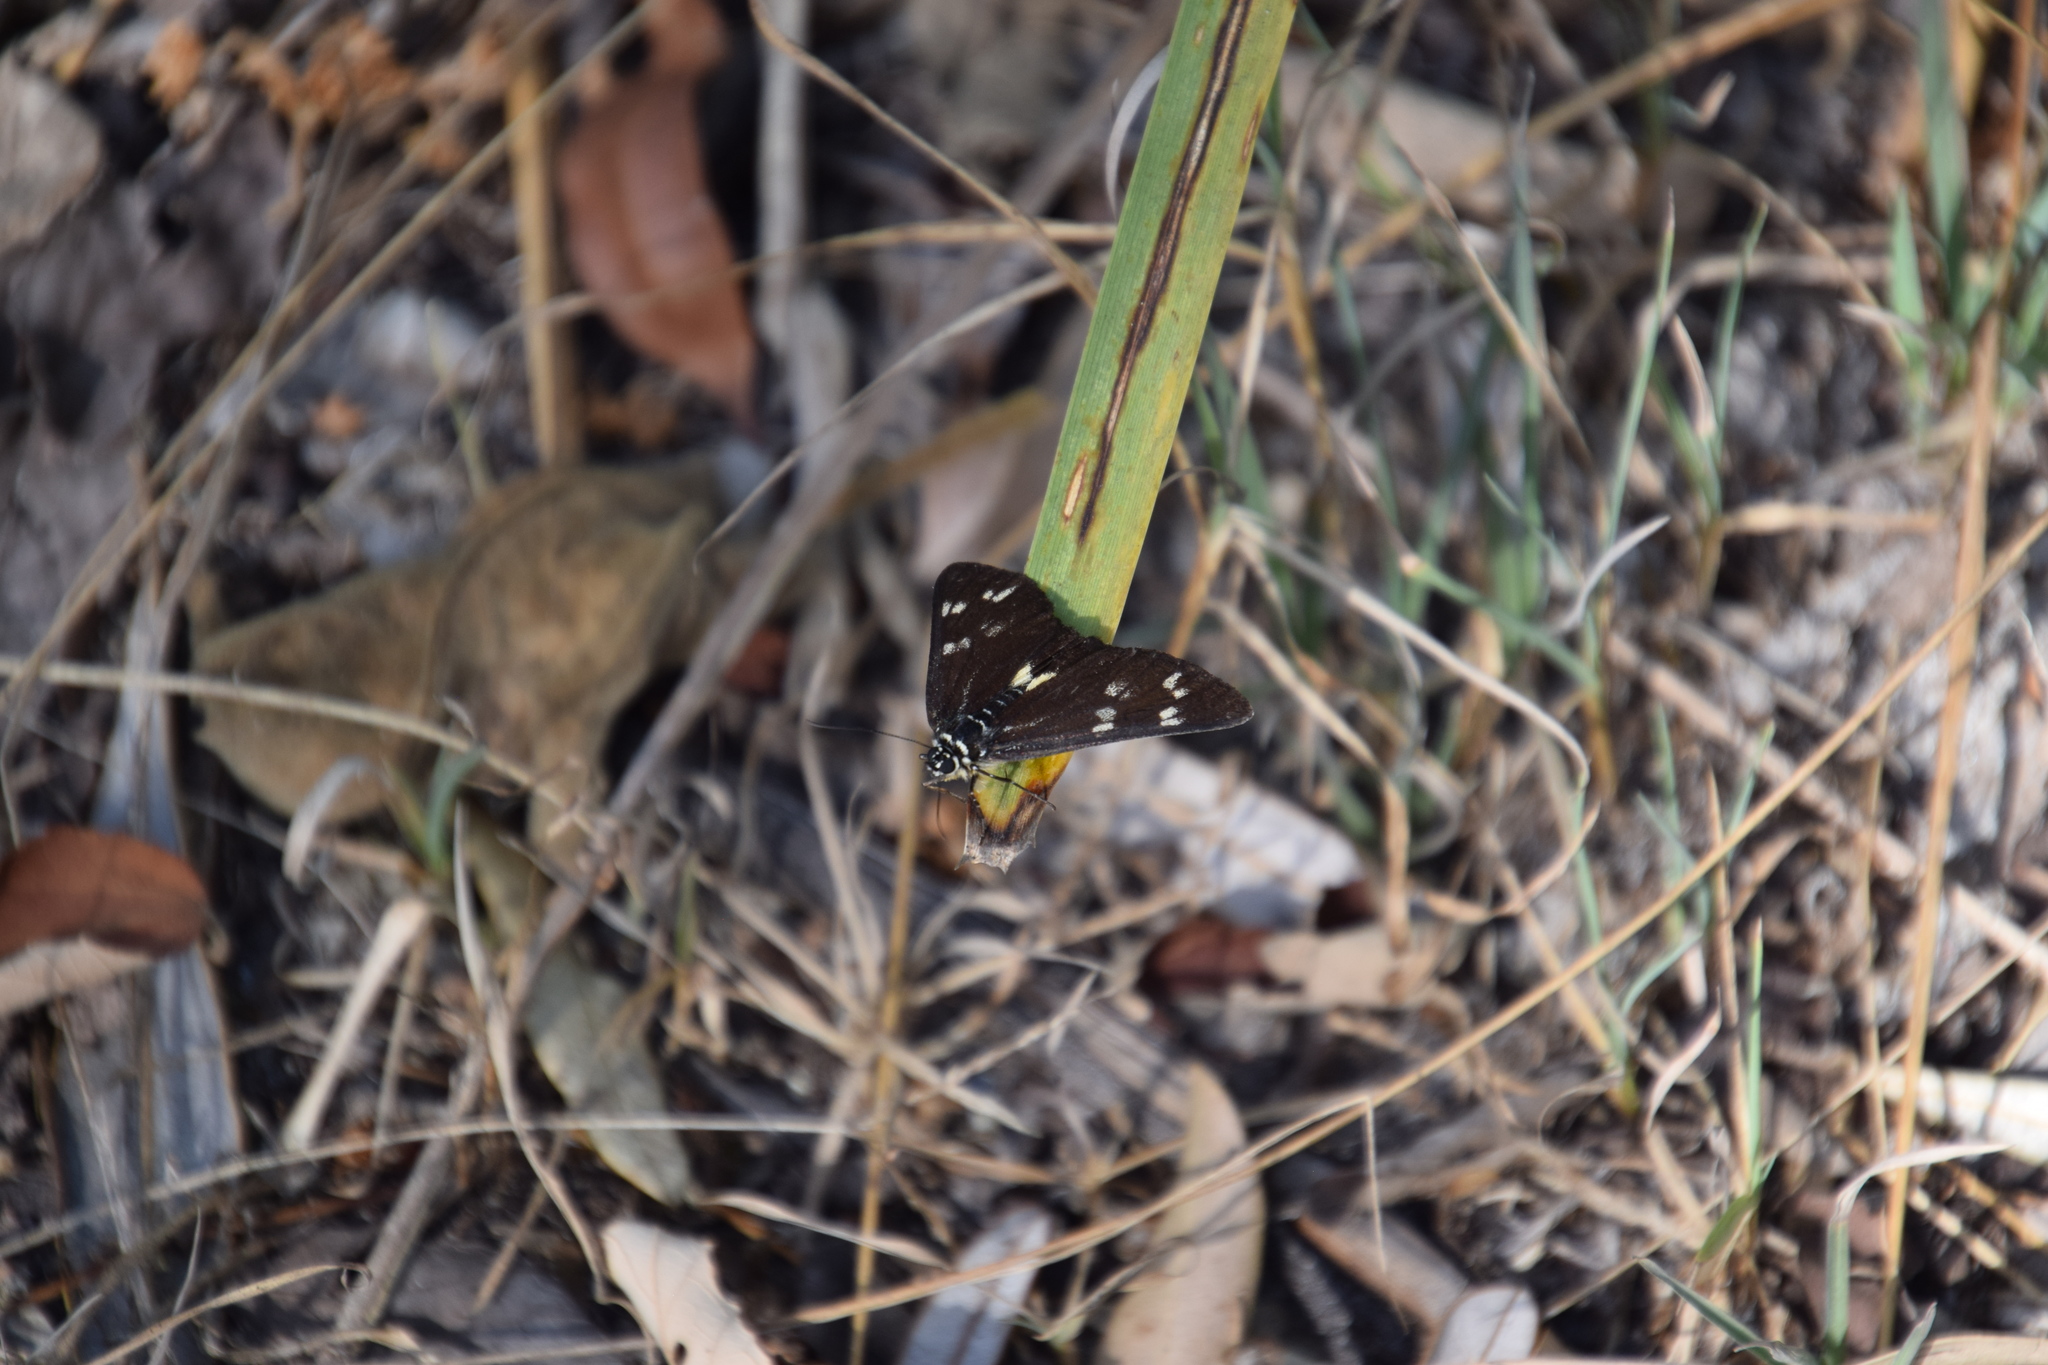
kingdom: Animalia
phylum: Arthropoda
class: Insecta
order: Lepidoptera
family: Noctuidae
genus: Cruria
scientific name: Cruria synopla
